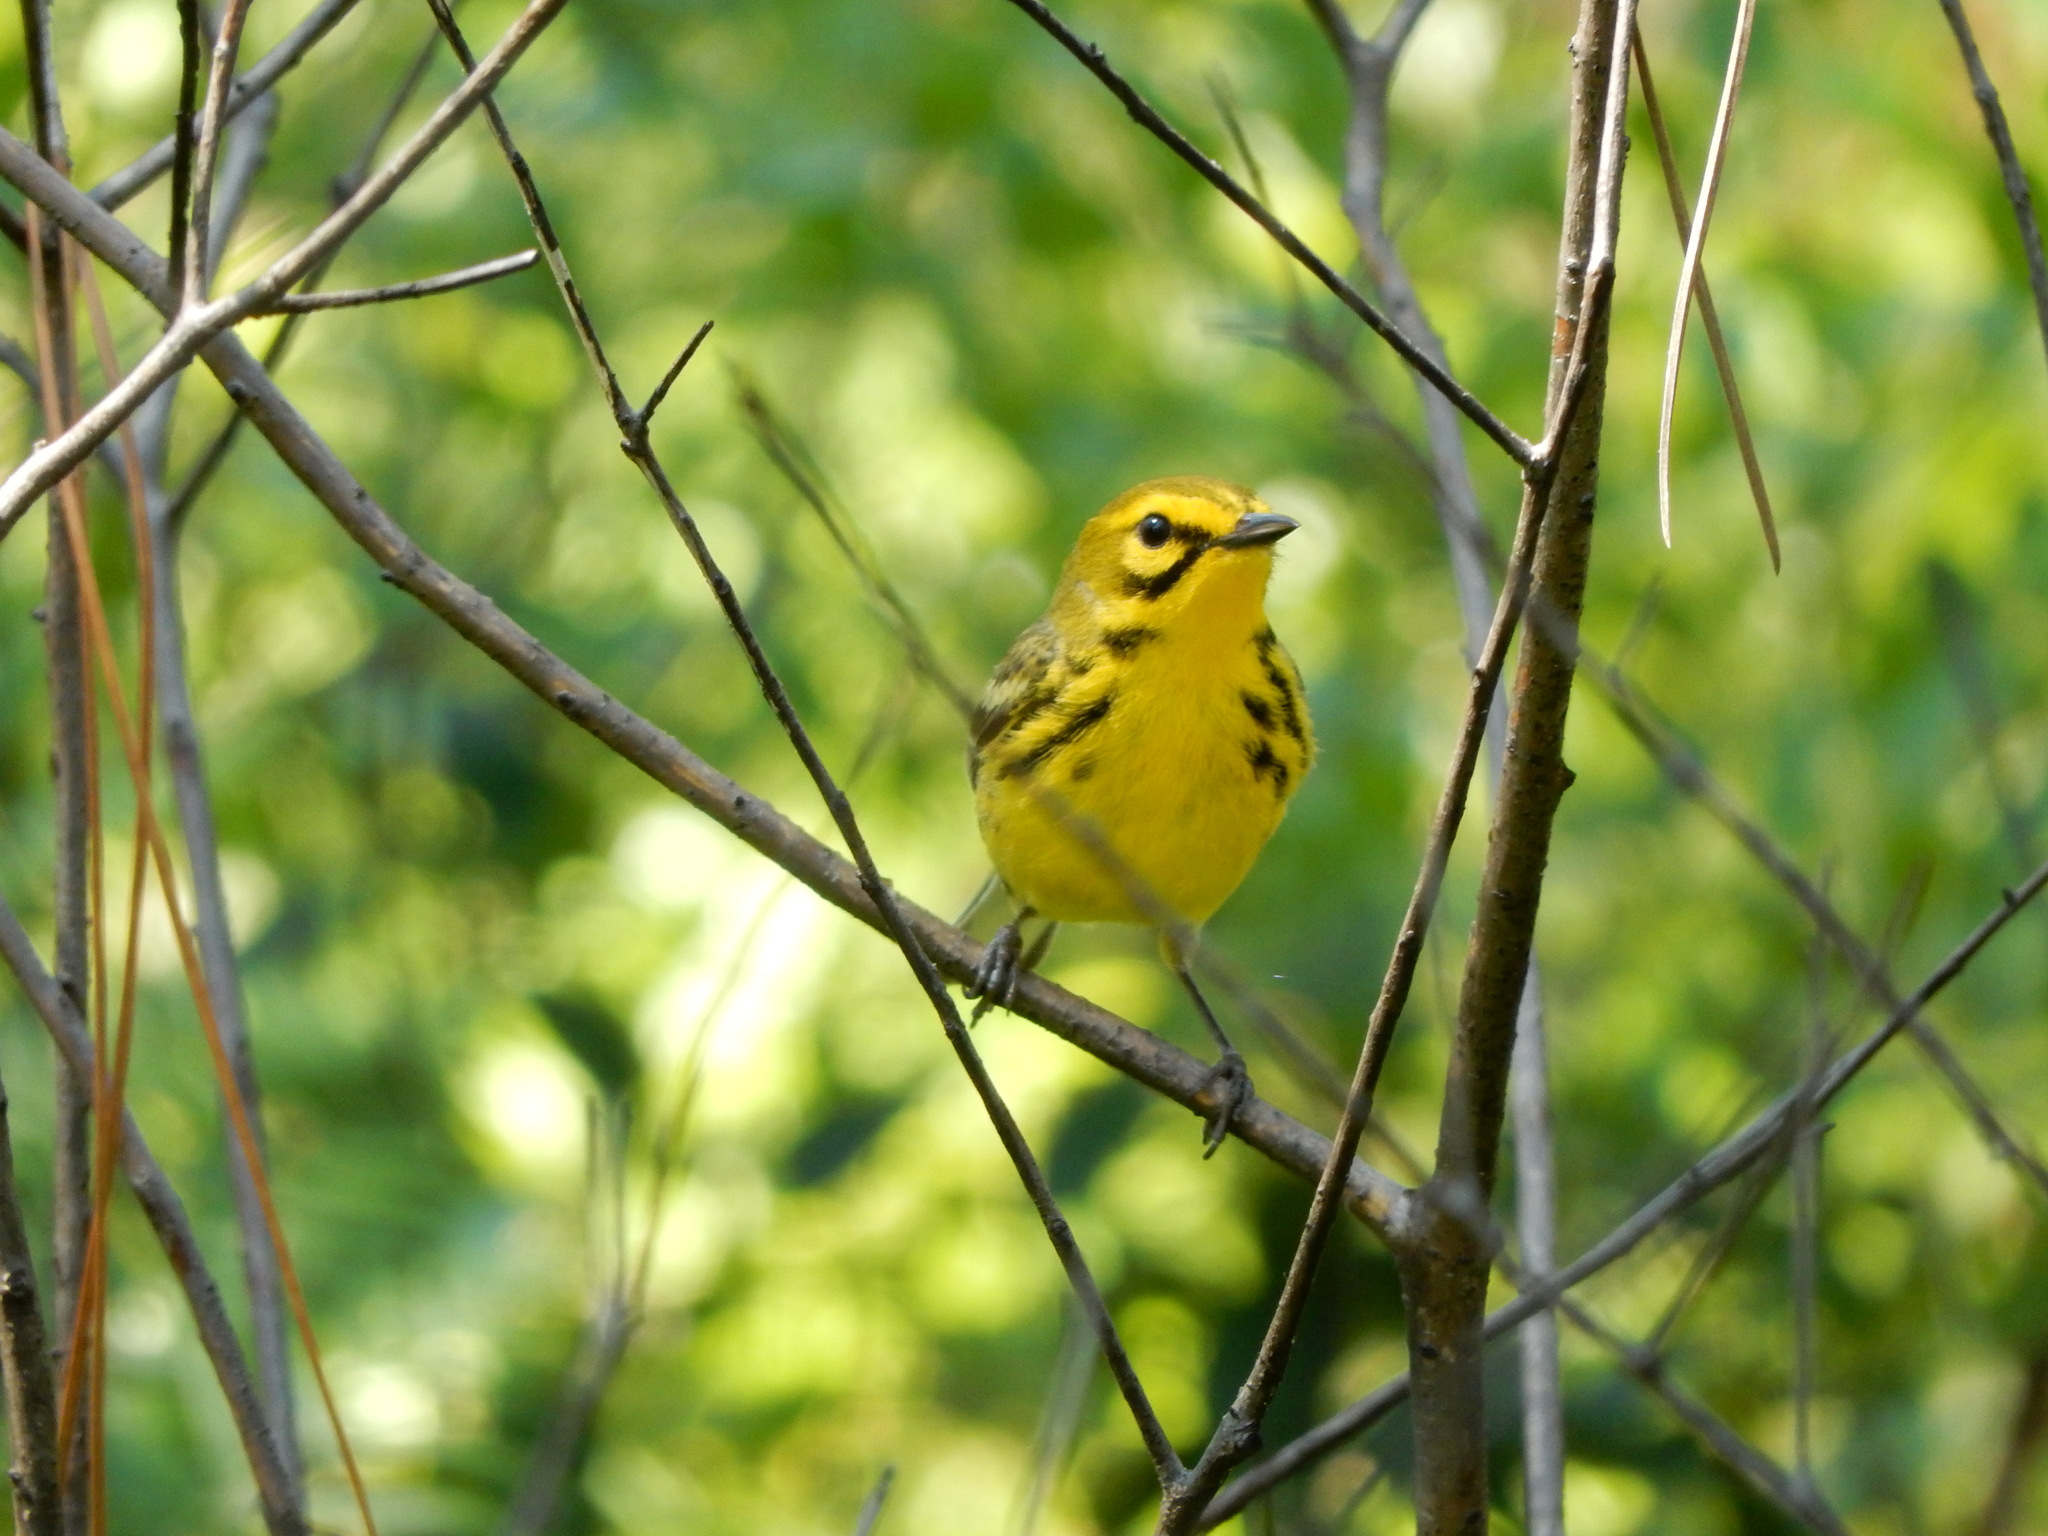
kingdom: Animalia
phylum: Chordata
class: Aves
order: Passeriformes
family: Parulidae
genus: Setophaga
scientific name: Setophaga discolor
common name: Prairie warbler
